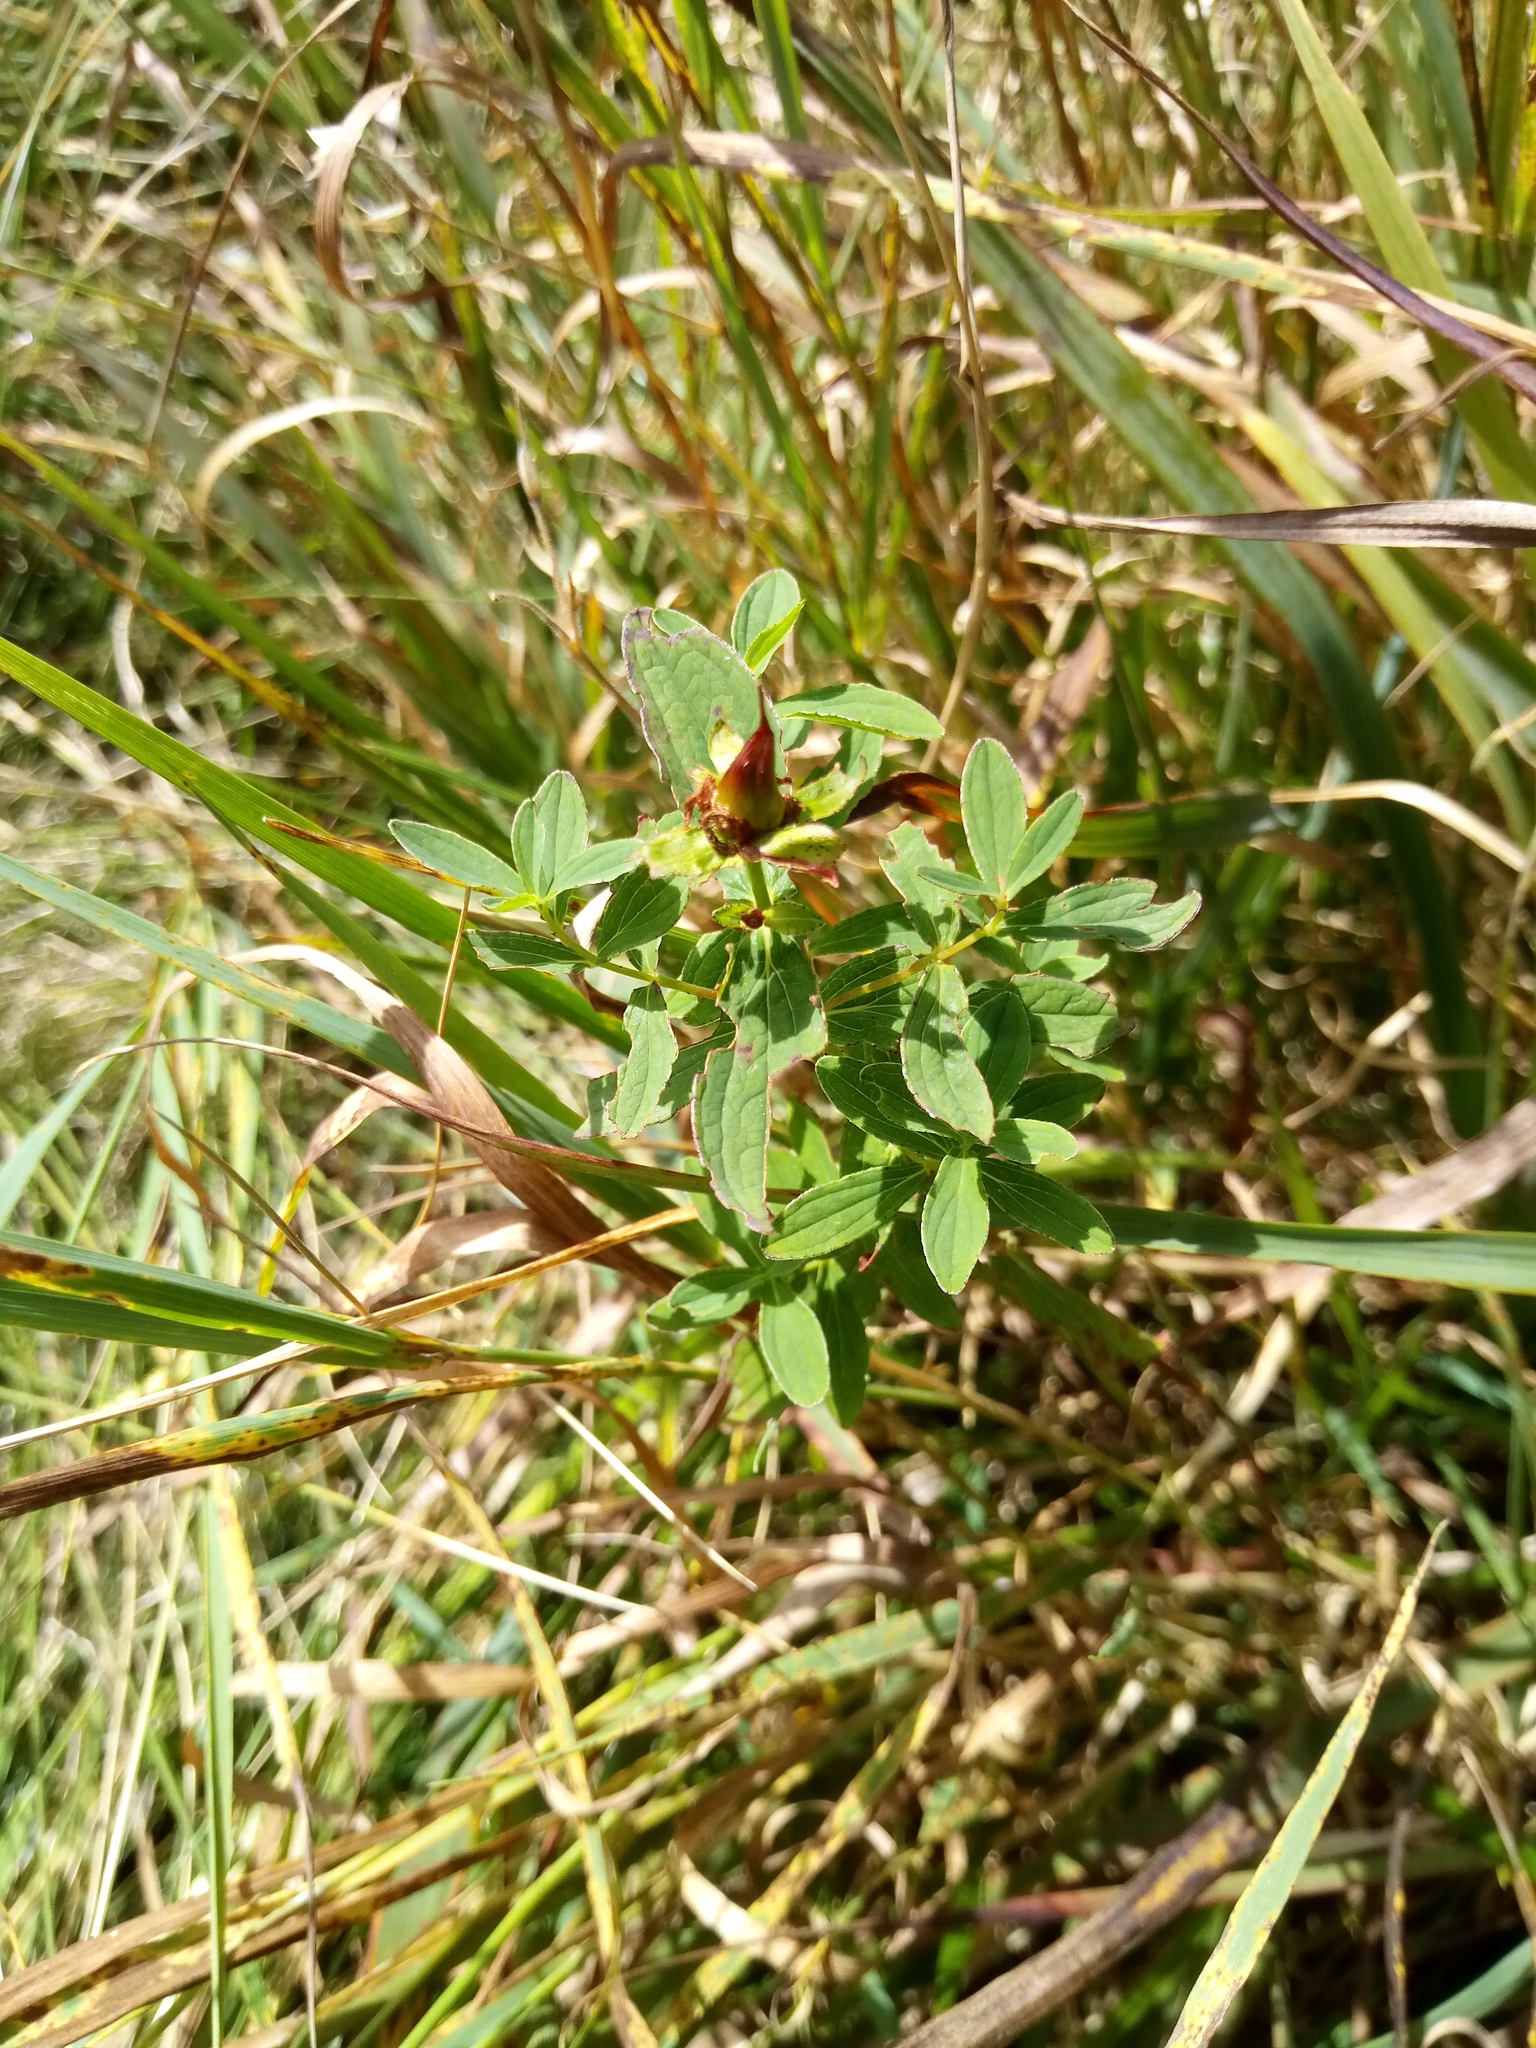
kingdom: Plantae
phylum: Tracheophyta
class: Magnoliopsida
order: Malpighiales
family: Hypericaceae
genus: Hypericum
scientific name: Hypericum maculatum
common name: Imperforate st. john's-wort
